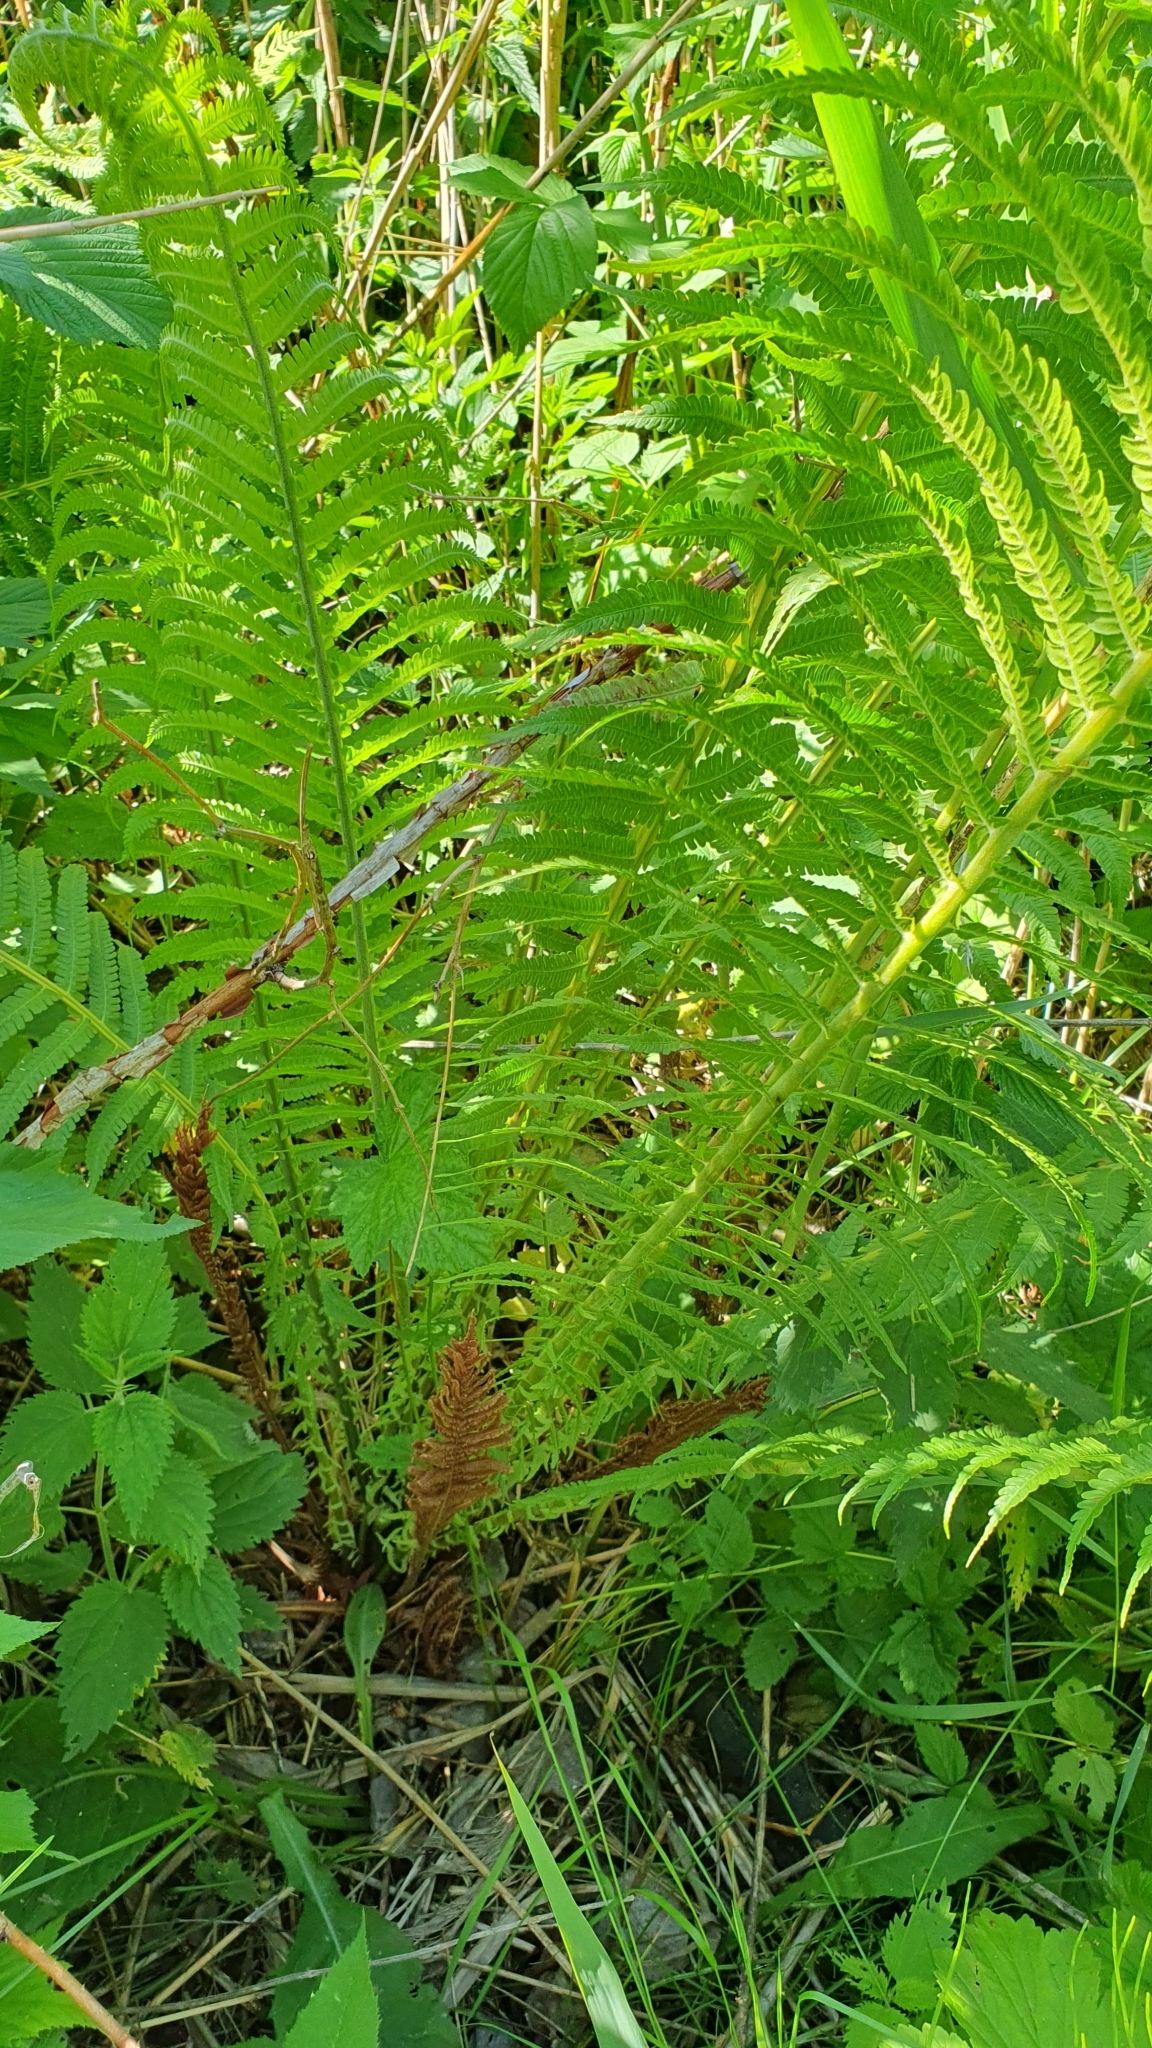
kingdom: Plantae
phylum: Tracheophyta
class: Polypodiopsida
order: Polypodiales
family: Onocleaceae
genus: Matteuccia
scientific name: Matteuccia struthiopteris
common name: Ostrich fern
